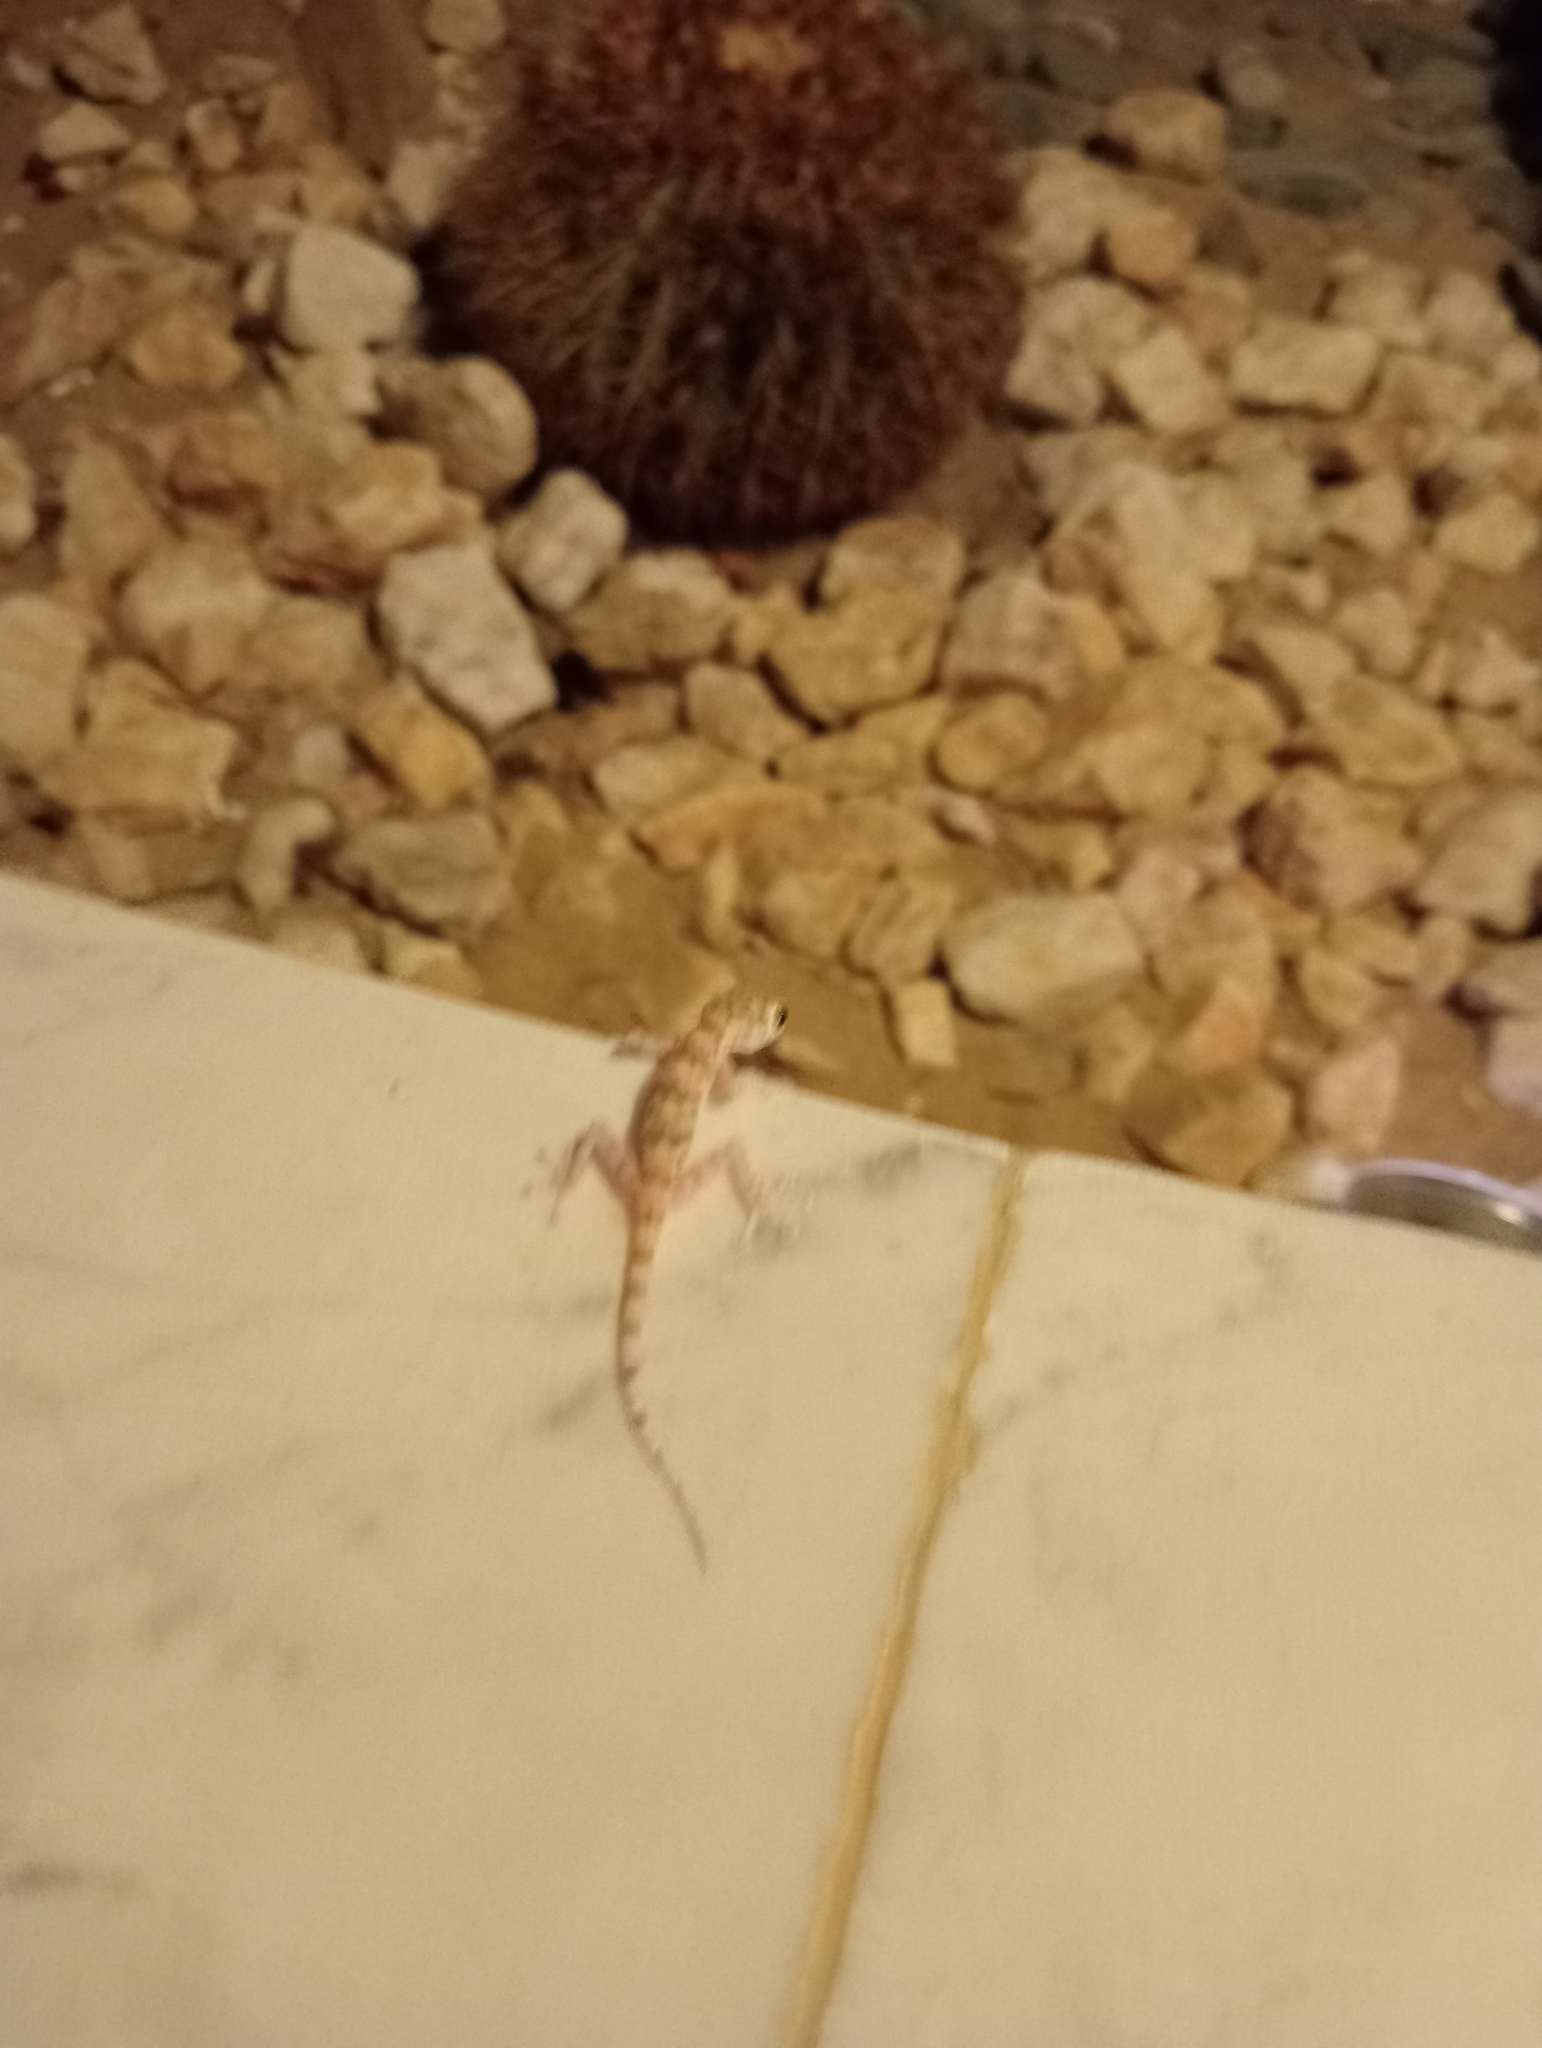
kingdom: Animalia
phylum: Chordata
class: Squamata
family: Phyllodactylidae
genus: Ptyodactylus
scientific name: Ptyodactylus hasselquistii
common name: Hasselquist’s fan-footed gecko
